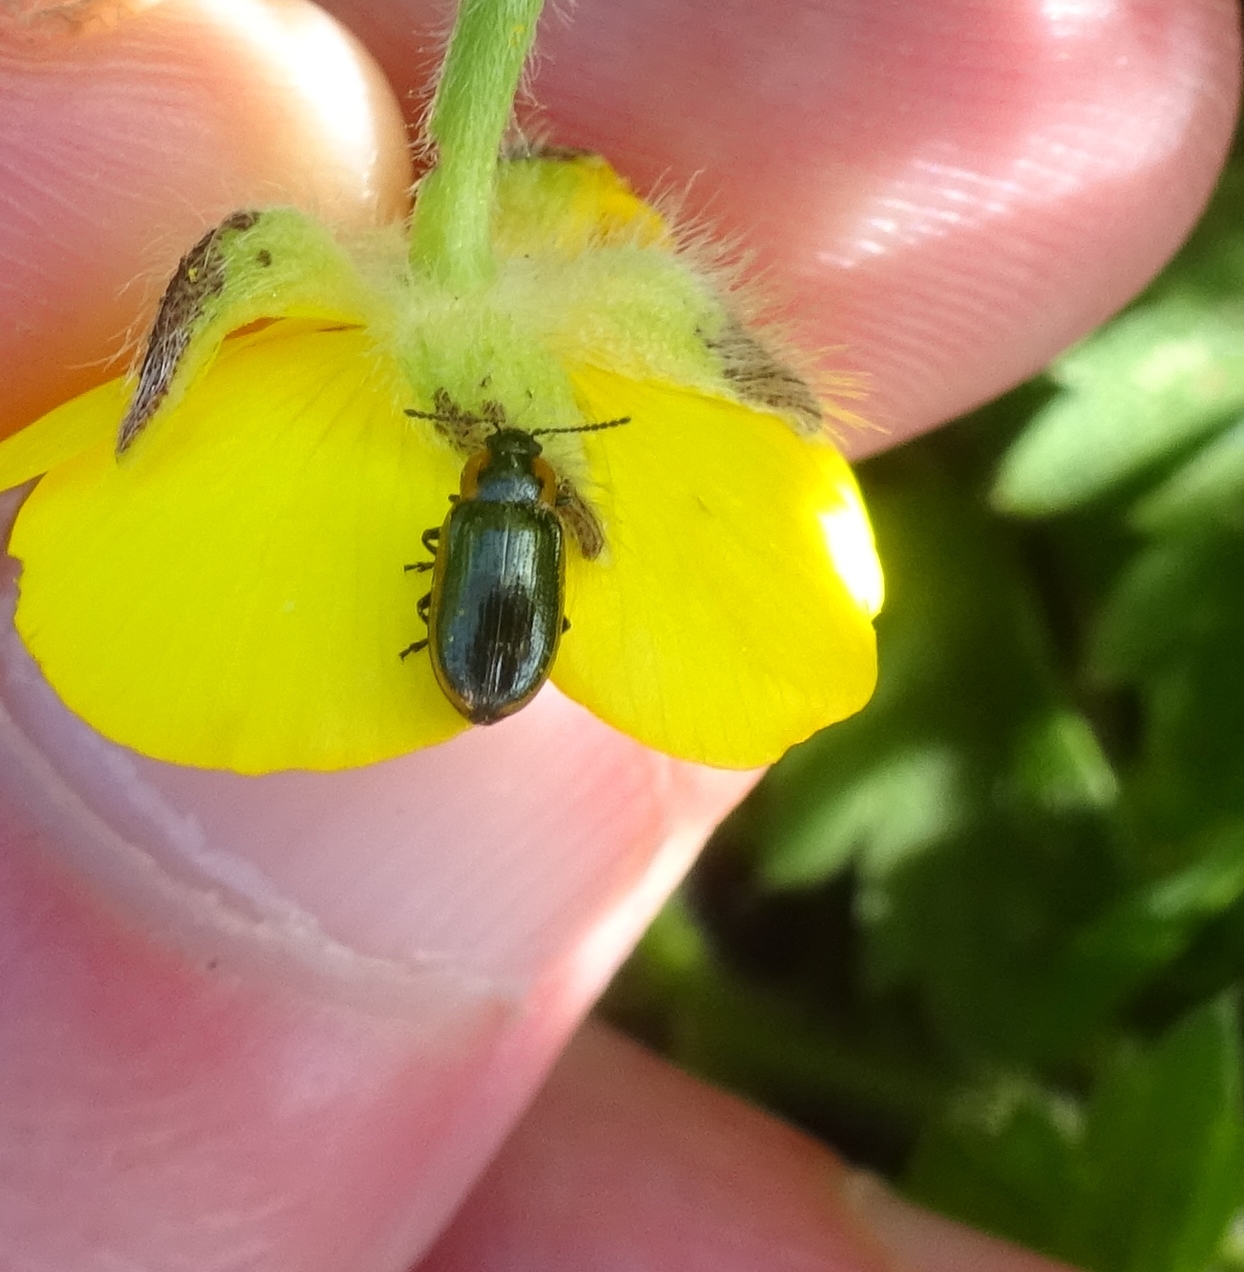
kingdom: Animalia
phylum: Arthropoda
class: Insecta
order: Coleoptera
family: Chrysomelidae
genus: Prasocuris
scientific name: Prasocuris marginella
